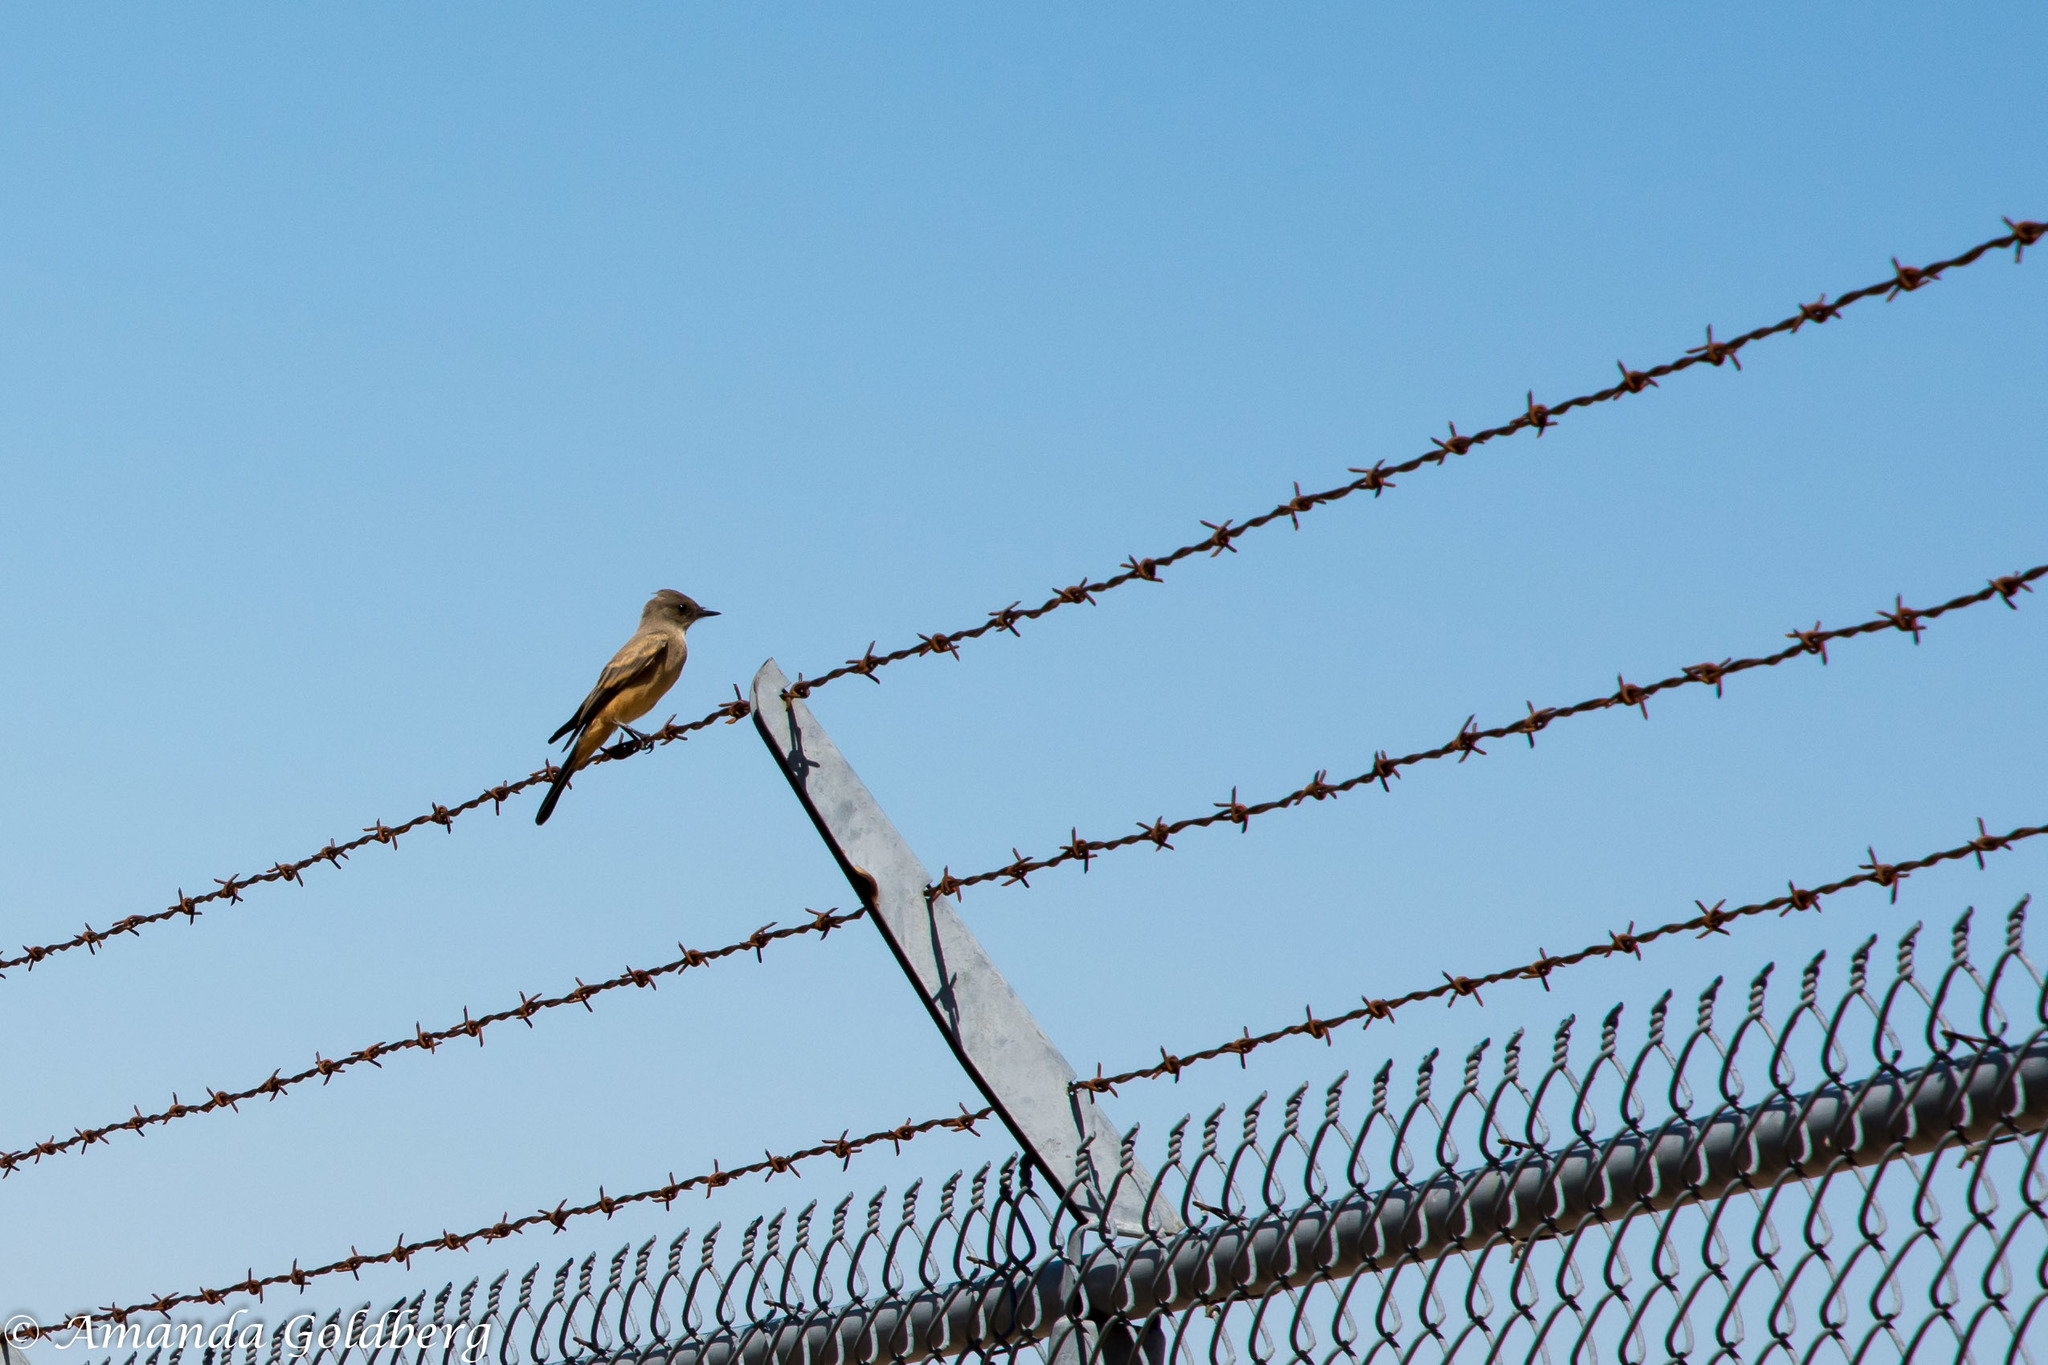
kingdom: Animalia
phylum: Chordata
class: Aves
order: Passeriformes
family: Tyrannidae
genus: Sayornis
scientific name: Sayornis saya
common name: Say's phoebe
